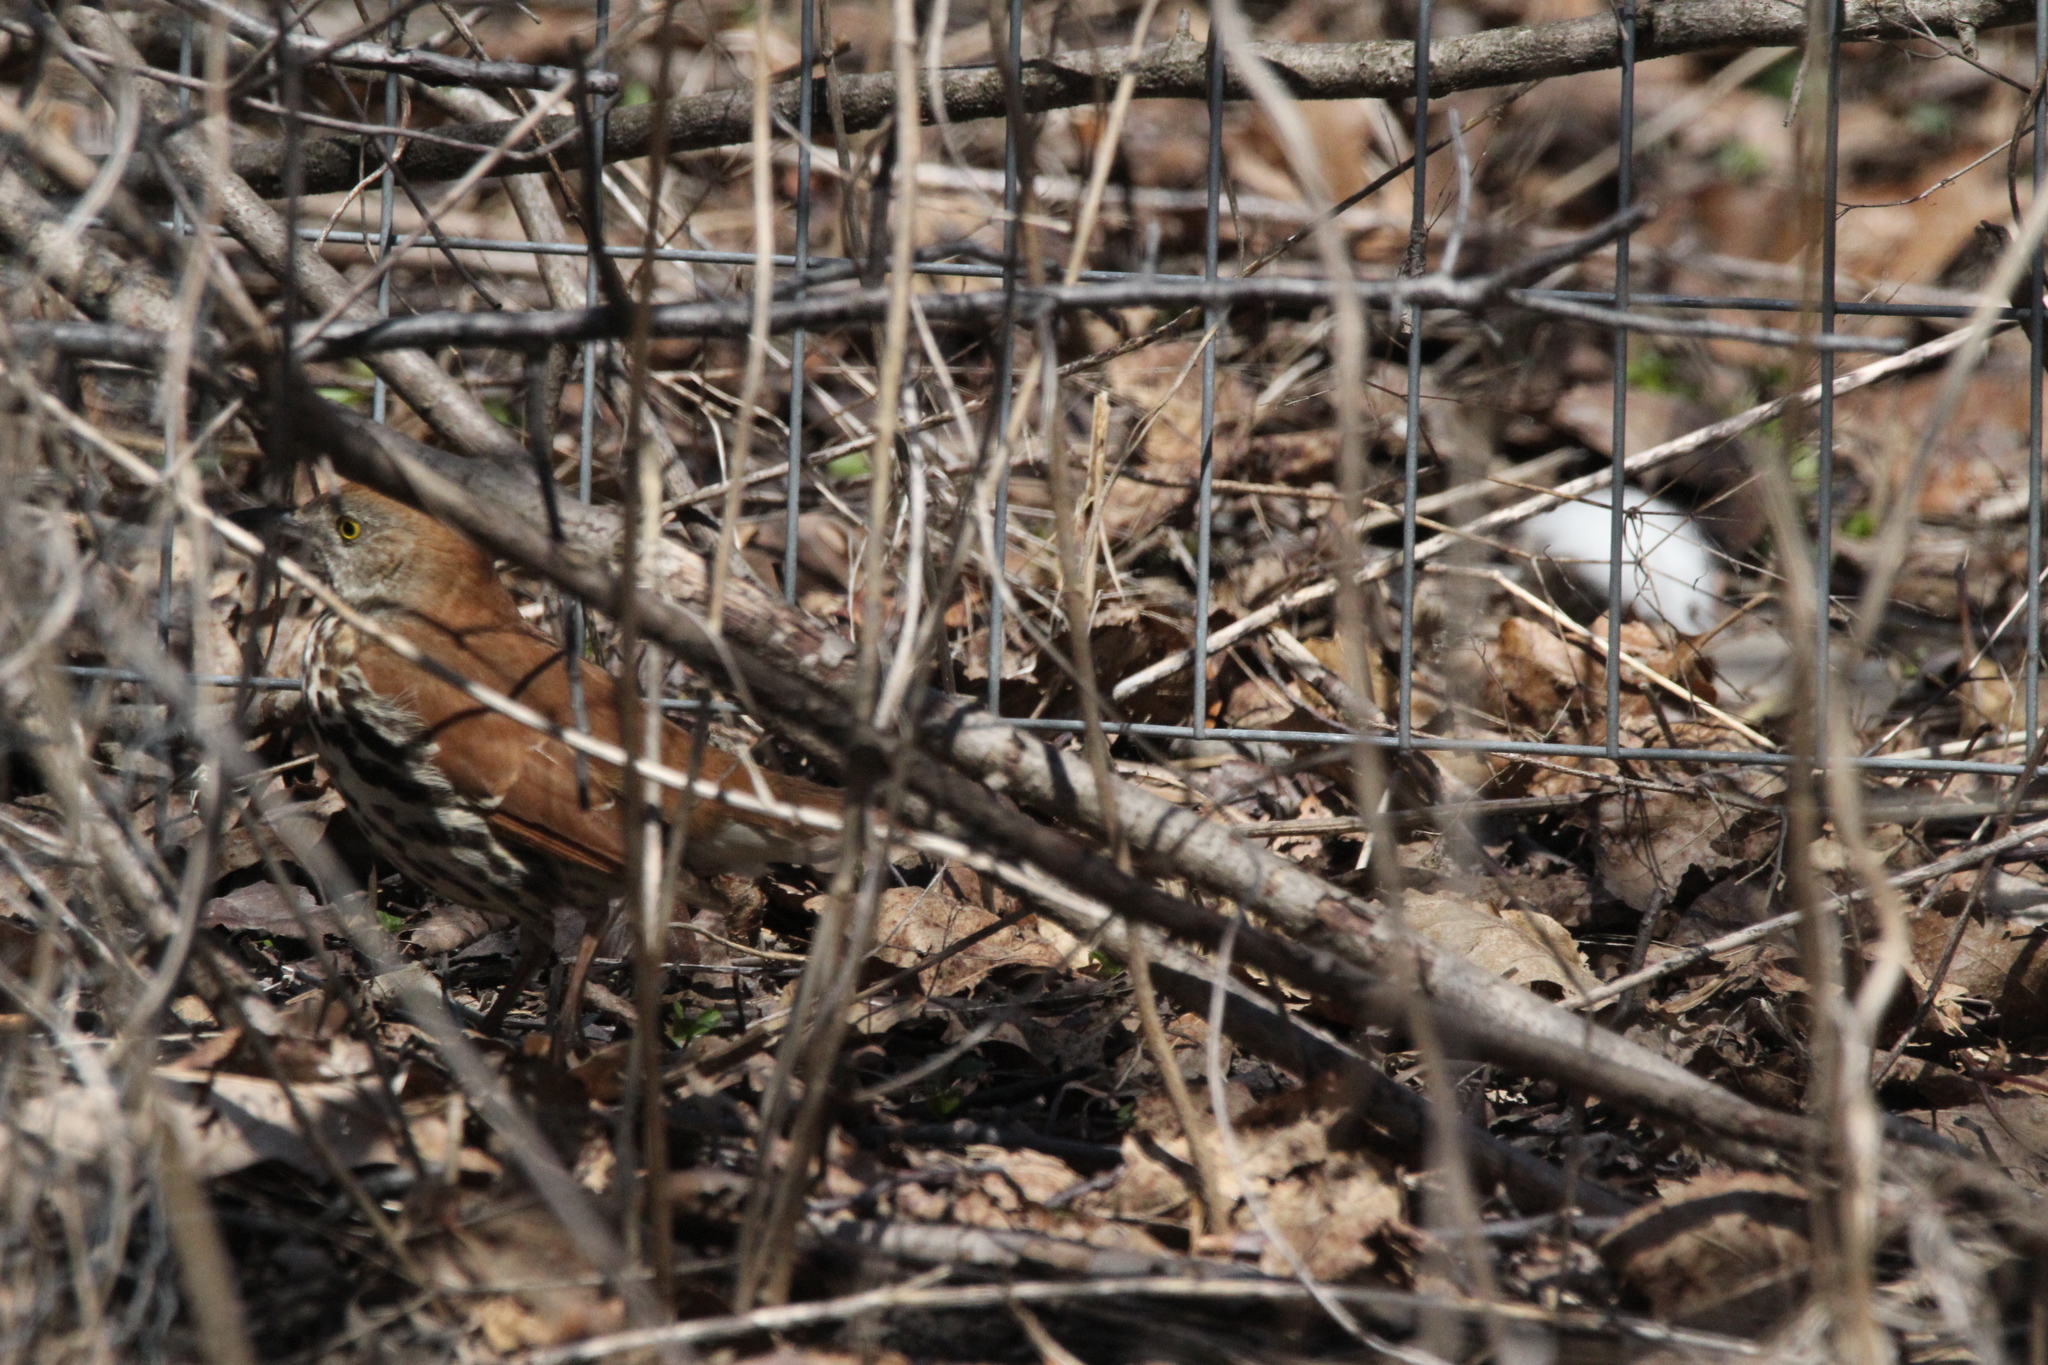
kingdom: Animalia
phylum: Chordata
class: Aves
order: Passeriformes
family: Mimidae
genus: Toxostoma
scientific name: Toxostoma rufum
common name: Brown thrasher
